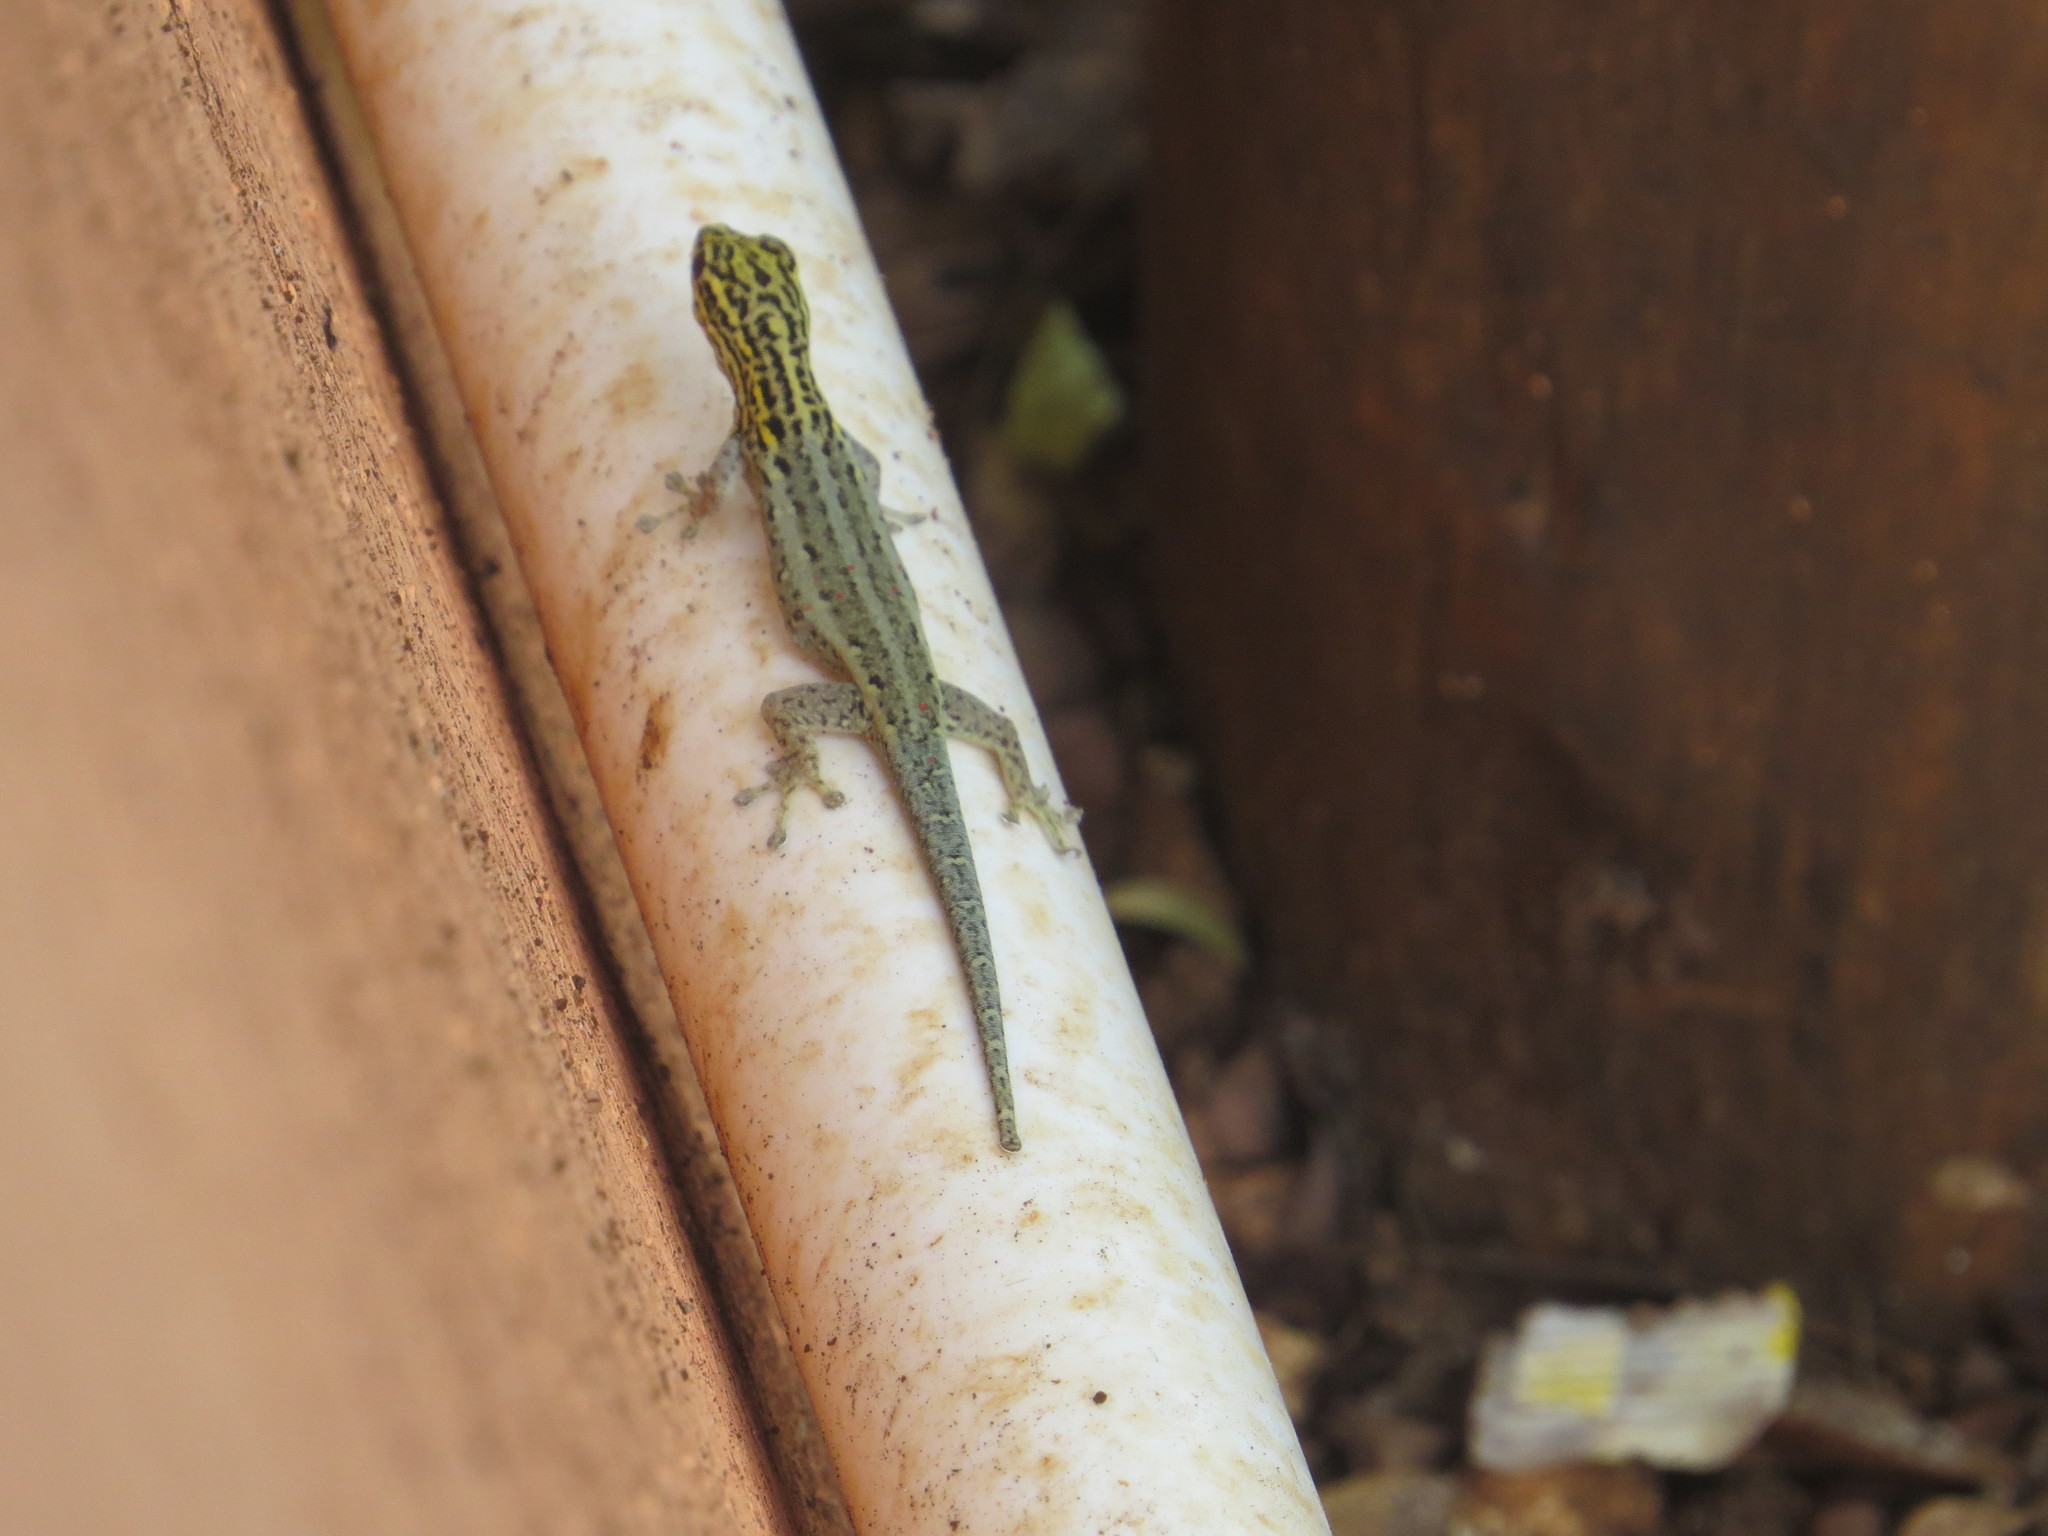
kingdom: Animalia
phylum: Chordata
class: Squamata
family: Gekkonidae
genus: Lygodactylus
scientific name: Lygodactylus picturatus
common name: Painted dwarf gecko
